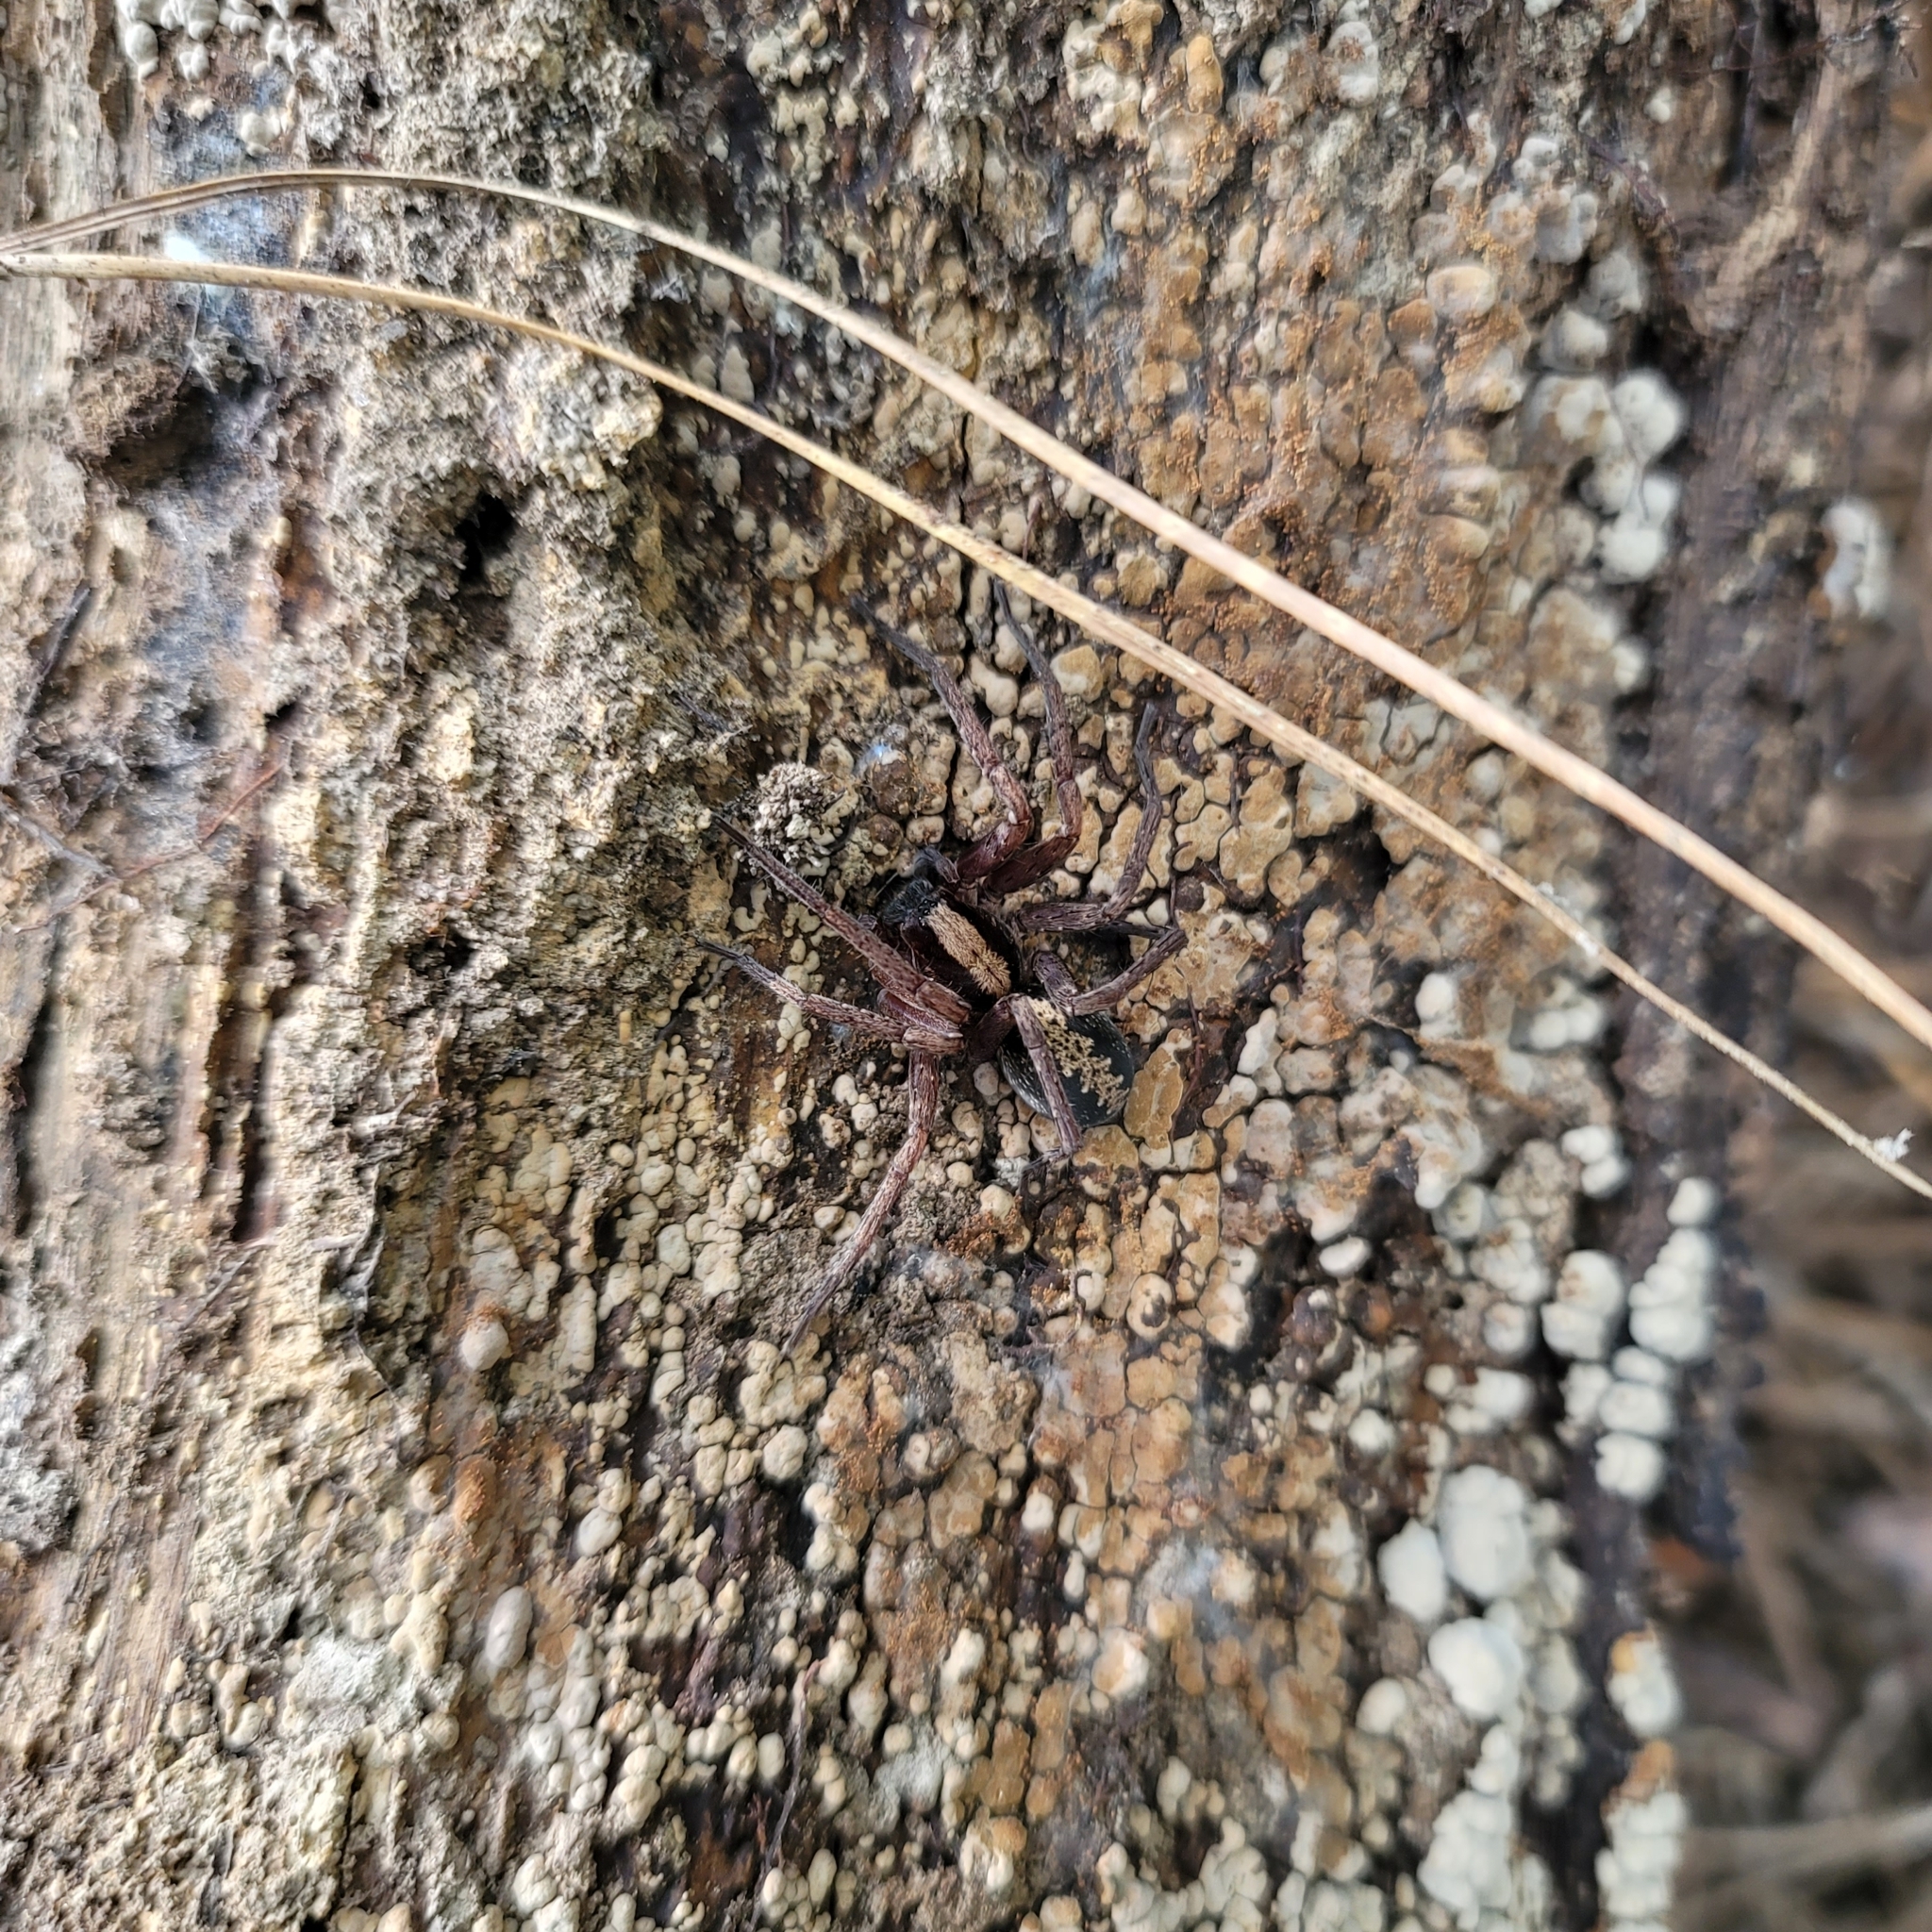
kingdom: Animalia
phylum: Arthropoda
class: Arachnida
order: Araneae
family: Ctenidae
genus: Ctenus
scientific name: Ctenus hibernalis
